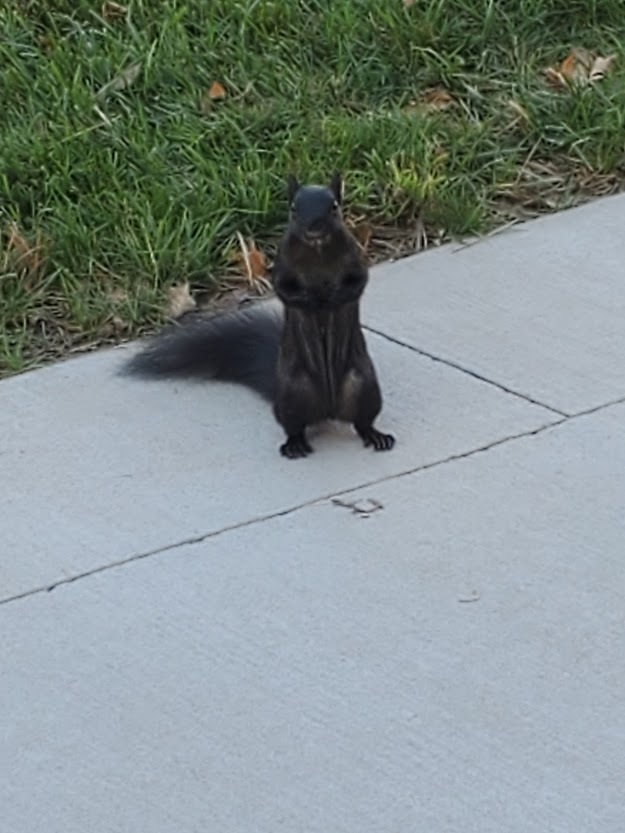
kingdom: Animalia
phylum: Chordata
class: Mammalia
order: Rodentia
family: Sciuridae
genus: Sciurus
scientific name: Sciurus niger
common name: Fox squirrel
